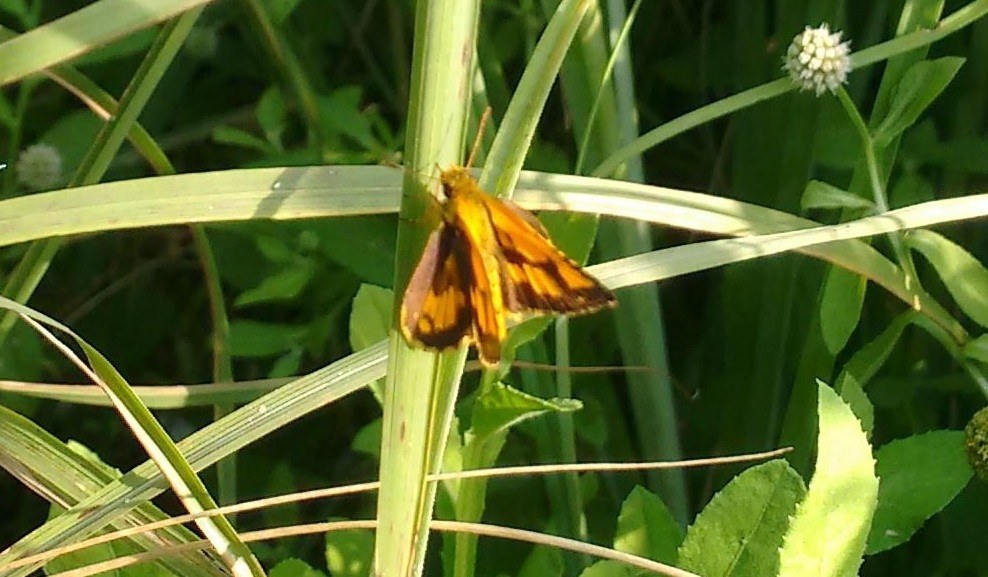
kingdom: Animalia
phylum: Arthropoda
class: Insecta
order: Lepidoptera
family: Hesperiidae
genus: Ampittia
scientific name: Ampittia dioscorides
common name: Common bush hopper
